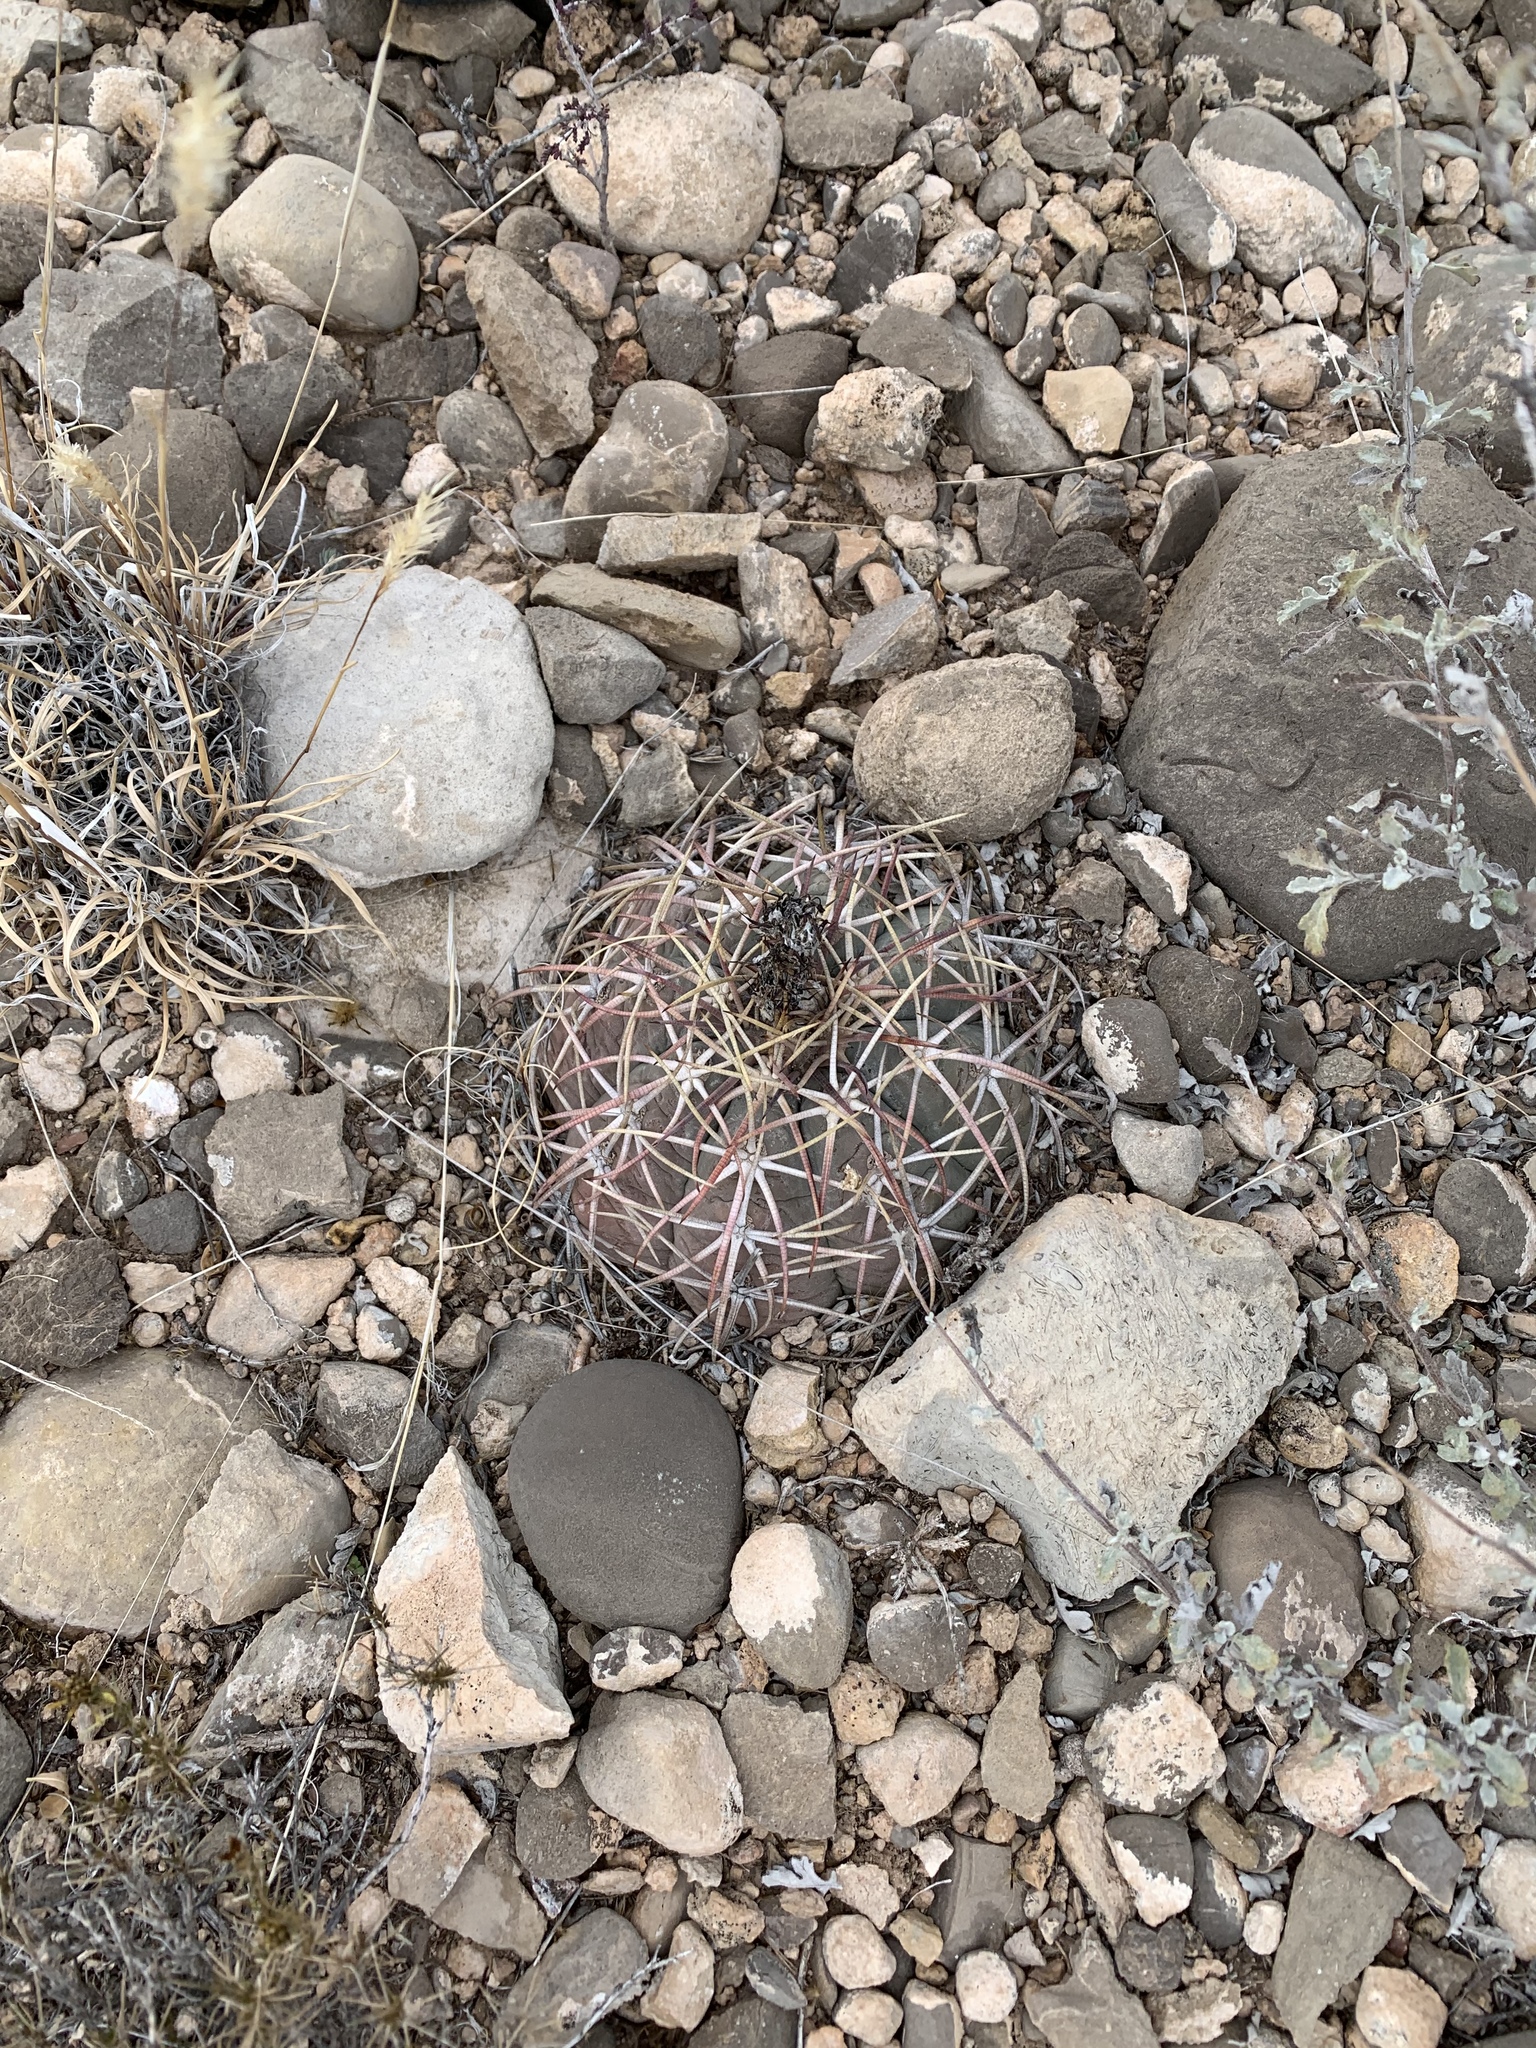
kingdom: Plantae
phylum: Tracheophyta
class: Magnoliopsida
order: Caryophyllales
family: Cactaceae
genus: Echinocactus
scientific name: Echinocactus horizonthalonius
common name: Devilshead
